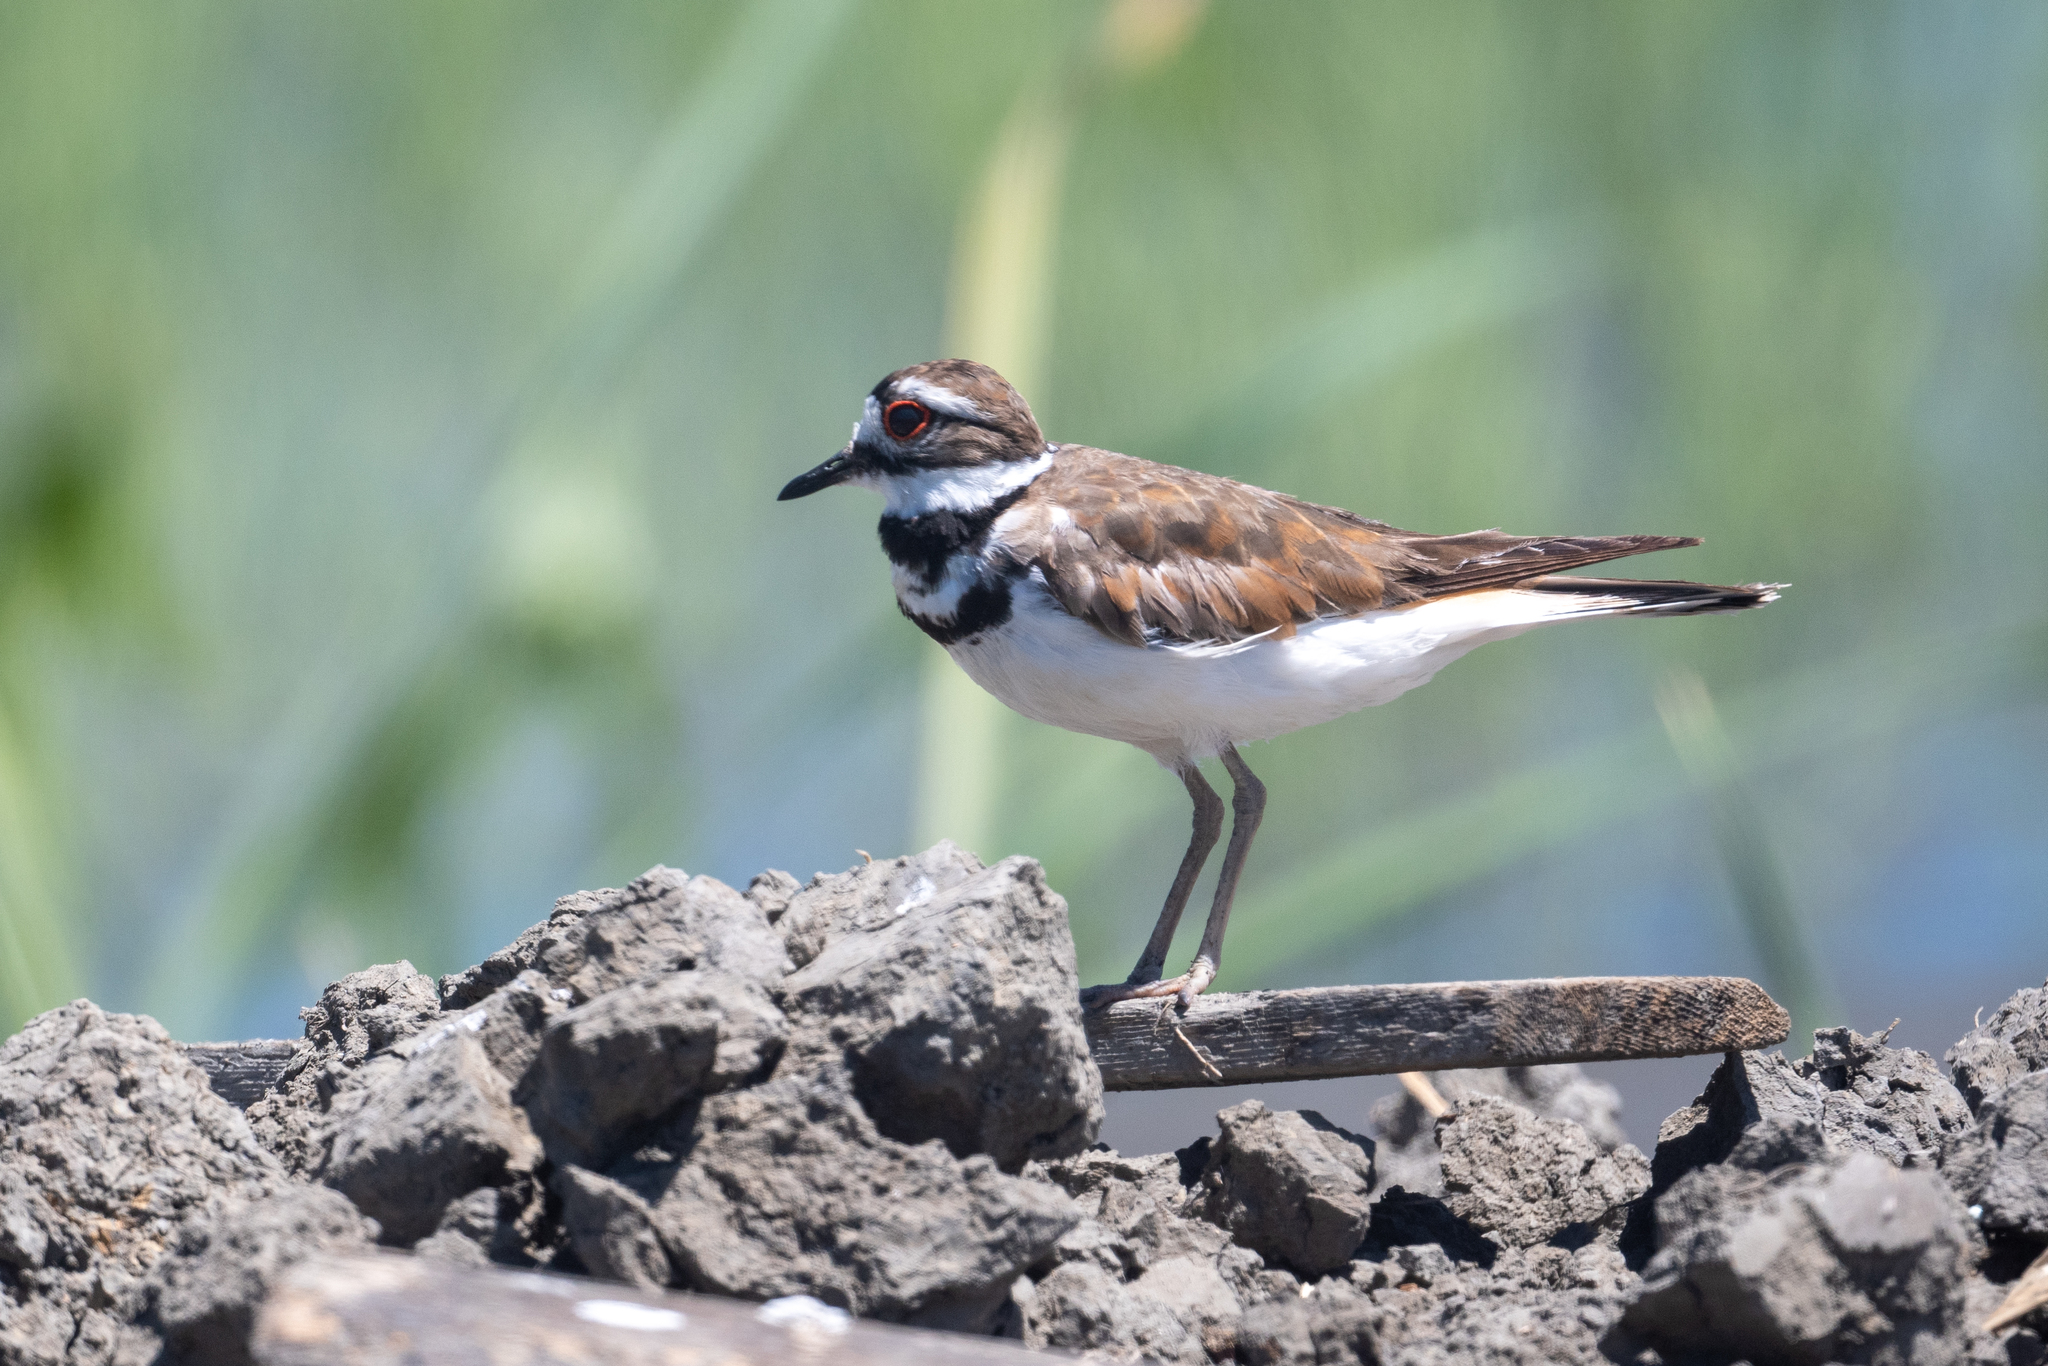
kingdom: Animalia
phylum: Chordata
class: Aves
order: Charadriiformes
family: Charadriidae
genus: Charadrius
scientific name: Charadrius vociferus
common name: Killdeer
